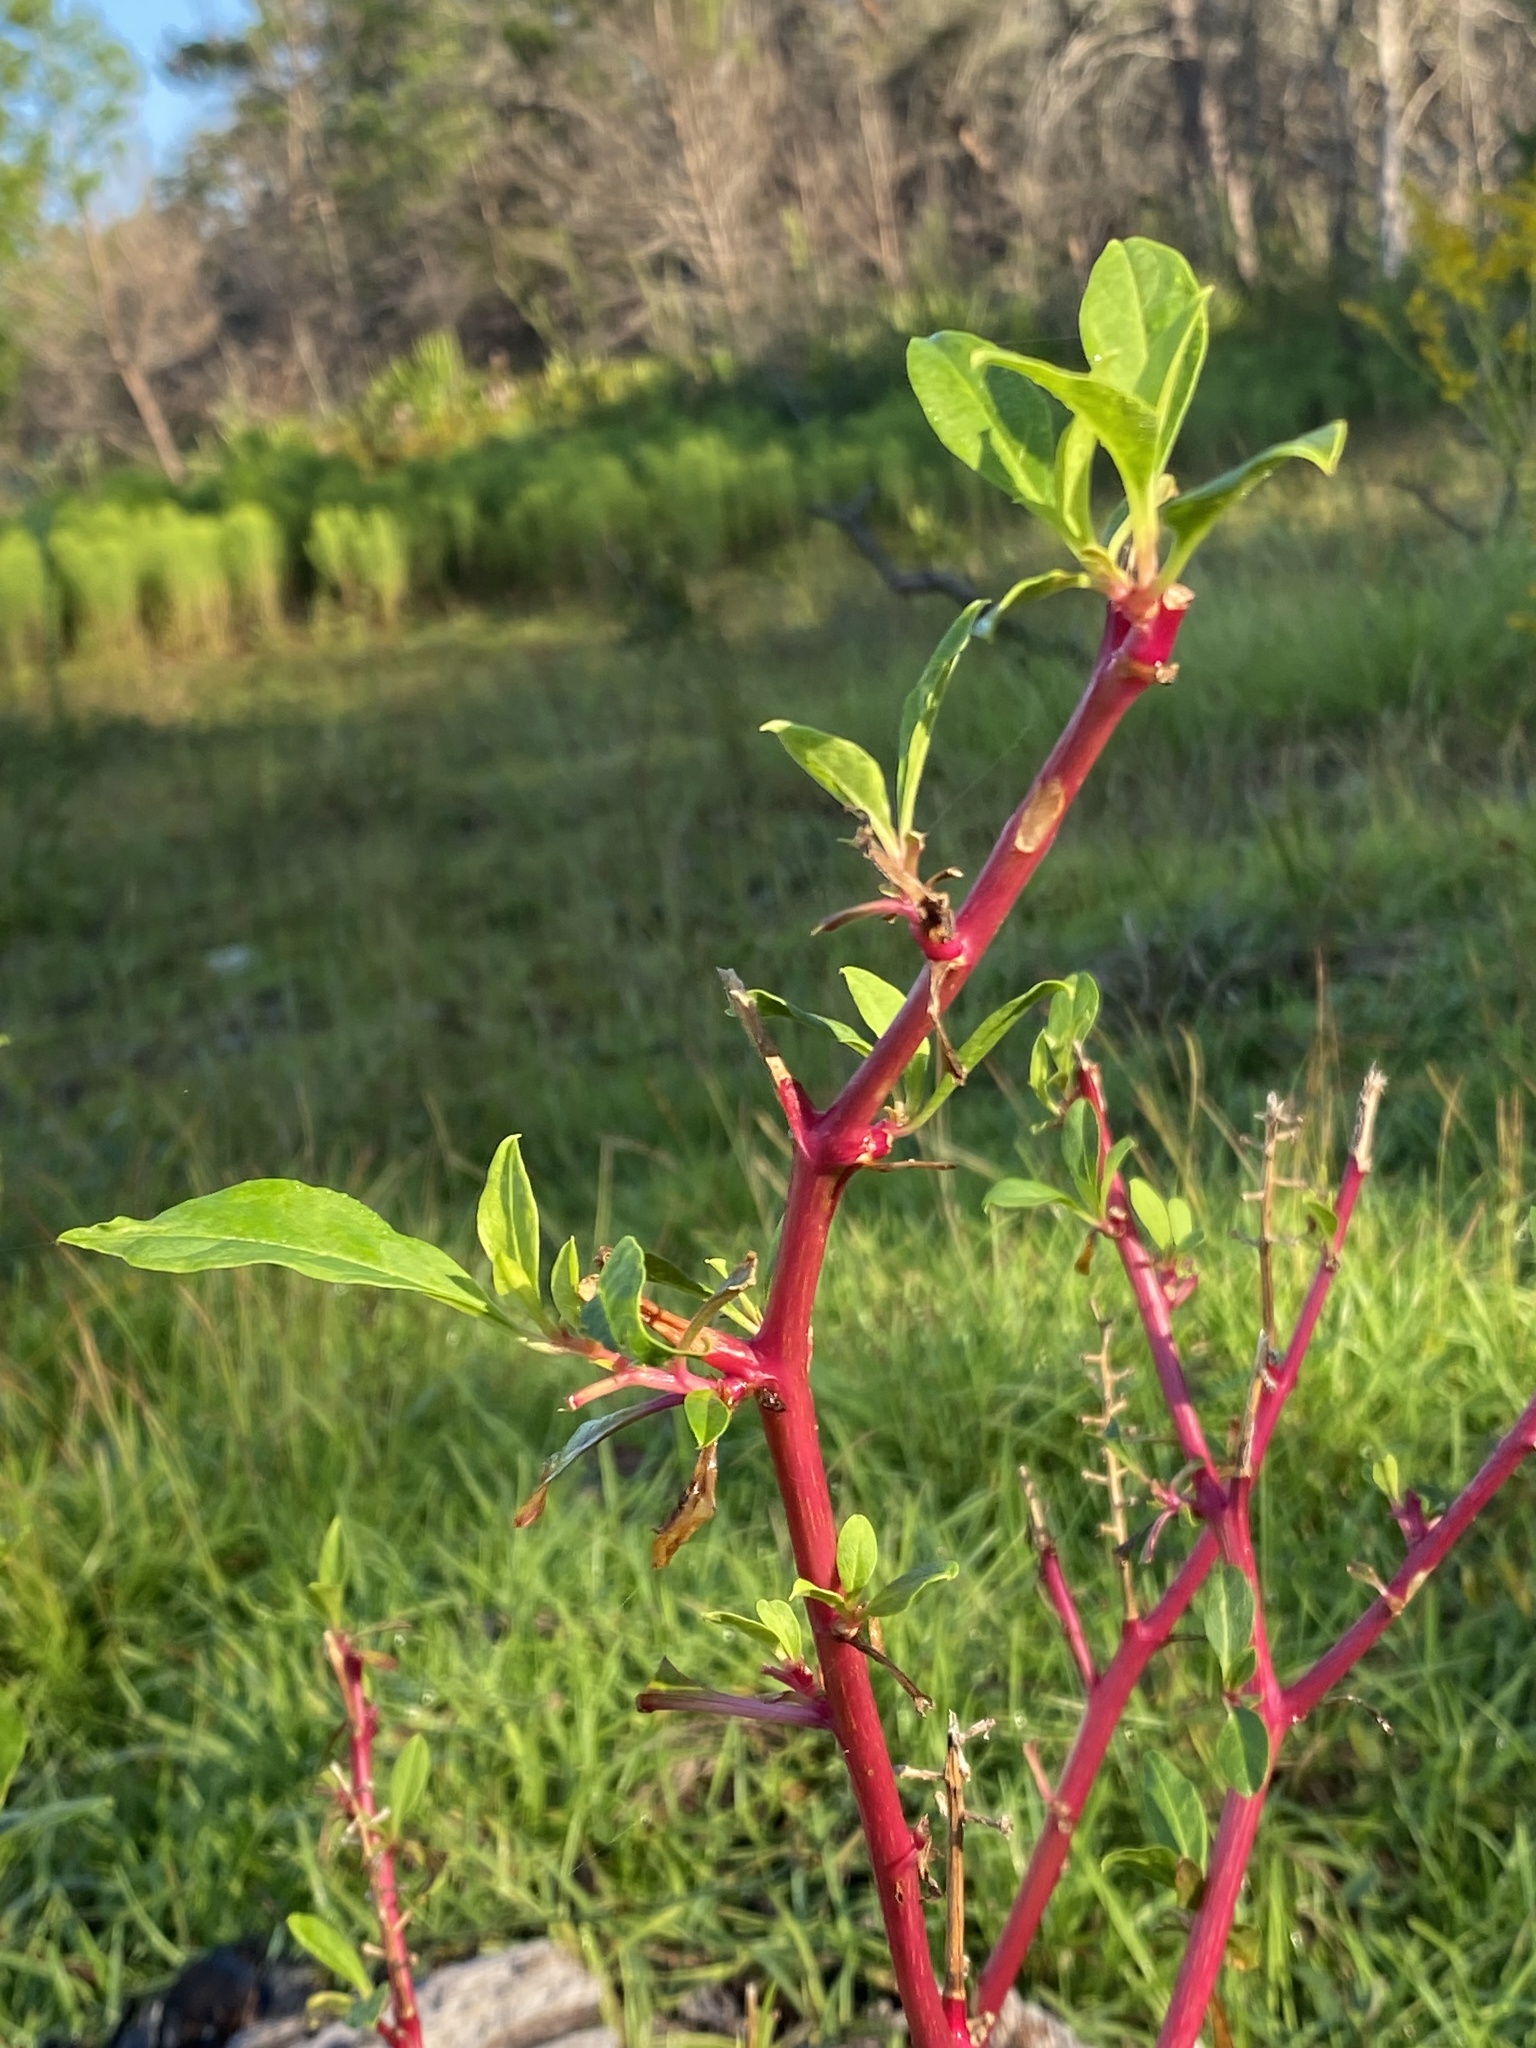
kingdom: Plantae
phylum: Tracheophyta
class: Magnoliopsida
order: Caryophyllales
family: Phytolaccaceae
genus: Phytolacca
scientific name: Phytolacca americana
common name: American pokeweed
